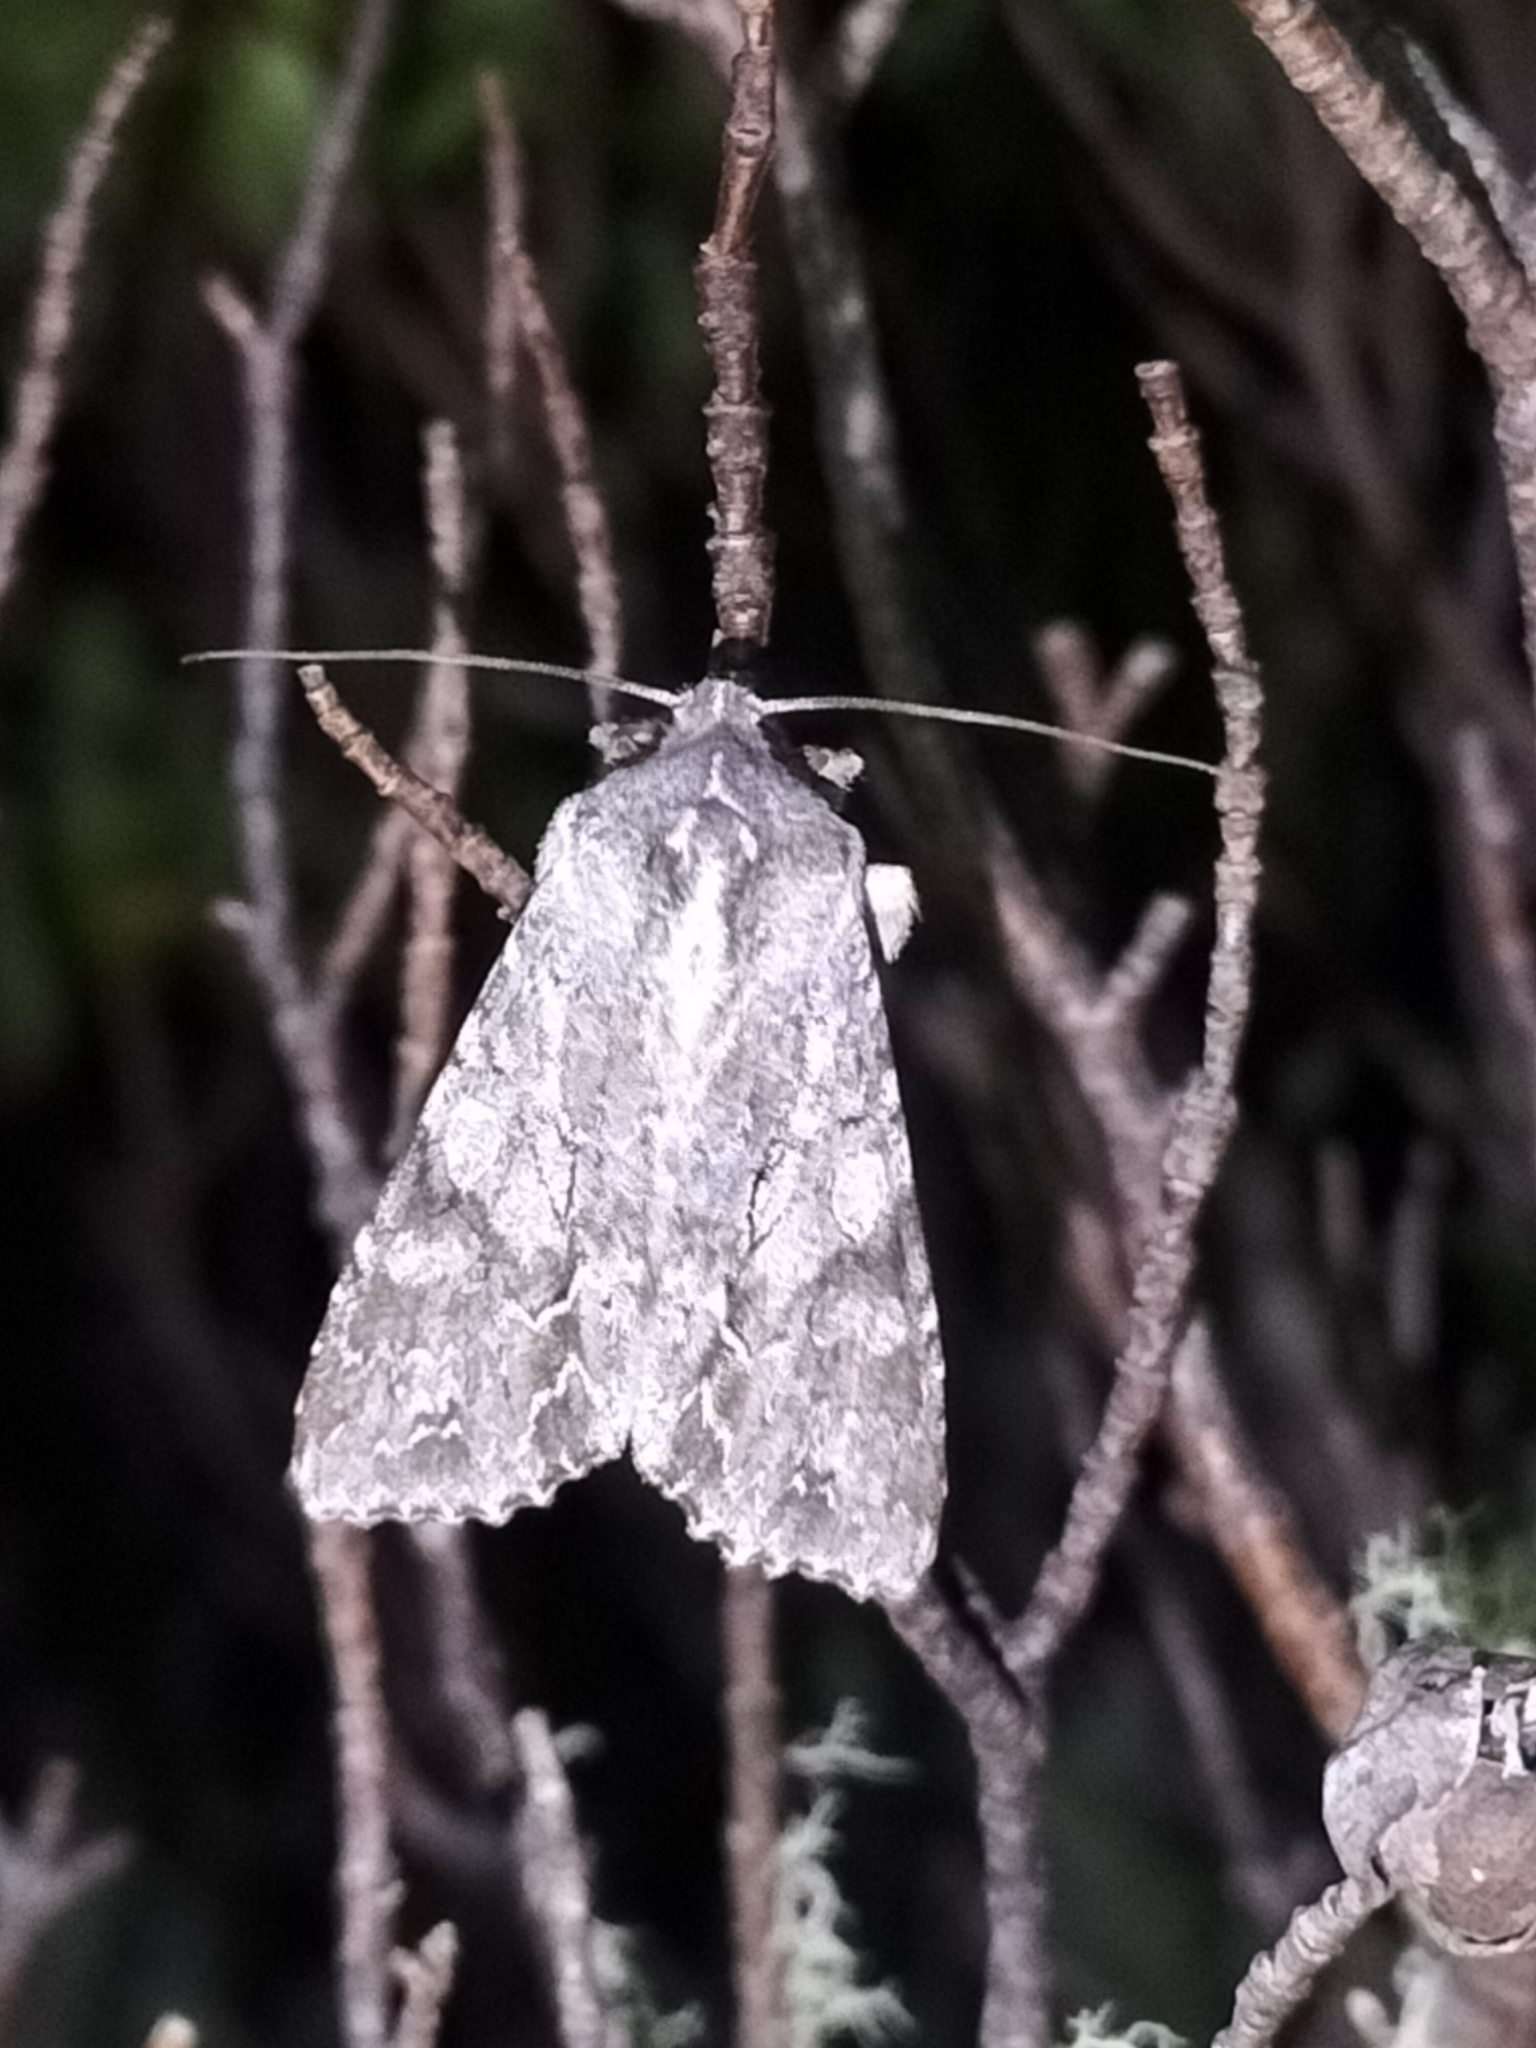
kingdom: Animalia
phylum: Arthropoda
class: Insecta
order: Lepidoptera
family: Noctuidae
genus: Ichneutica
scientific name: Ichneutica
